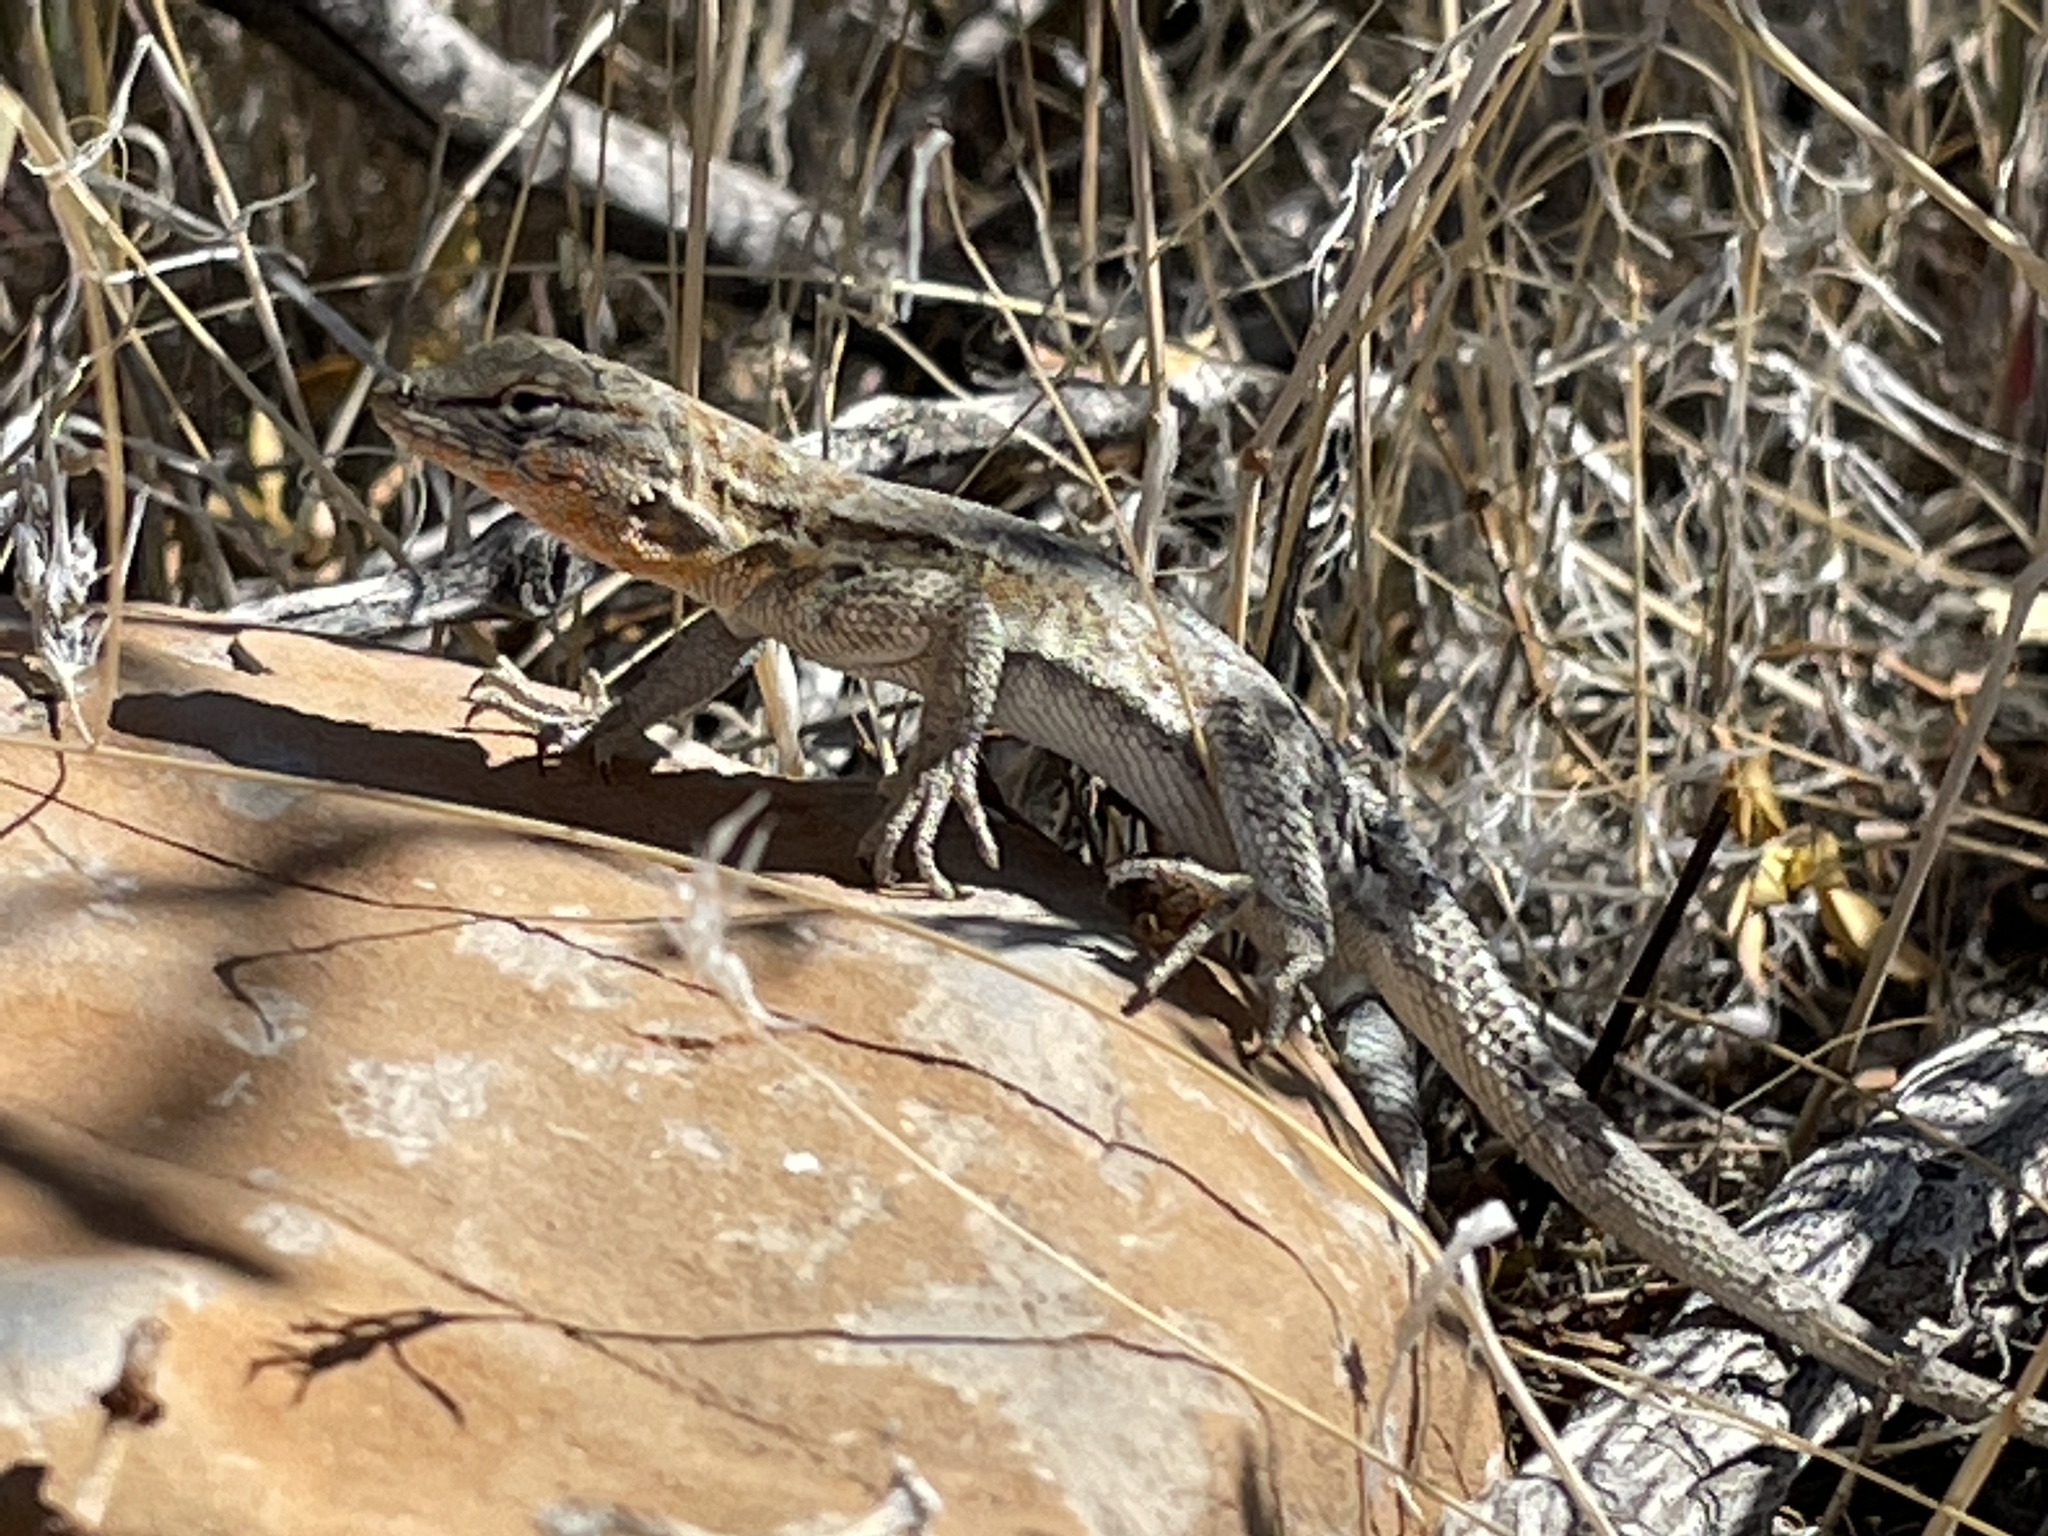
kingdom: Animalia
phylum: Chordata
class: Squamata
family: Phrynosomatidae
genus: Uta
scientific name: Uta stansburiana
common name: Side-blotched lizard
